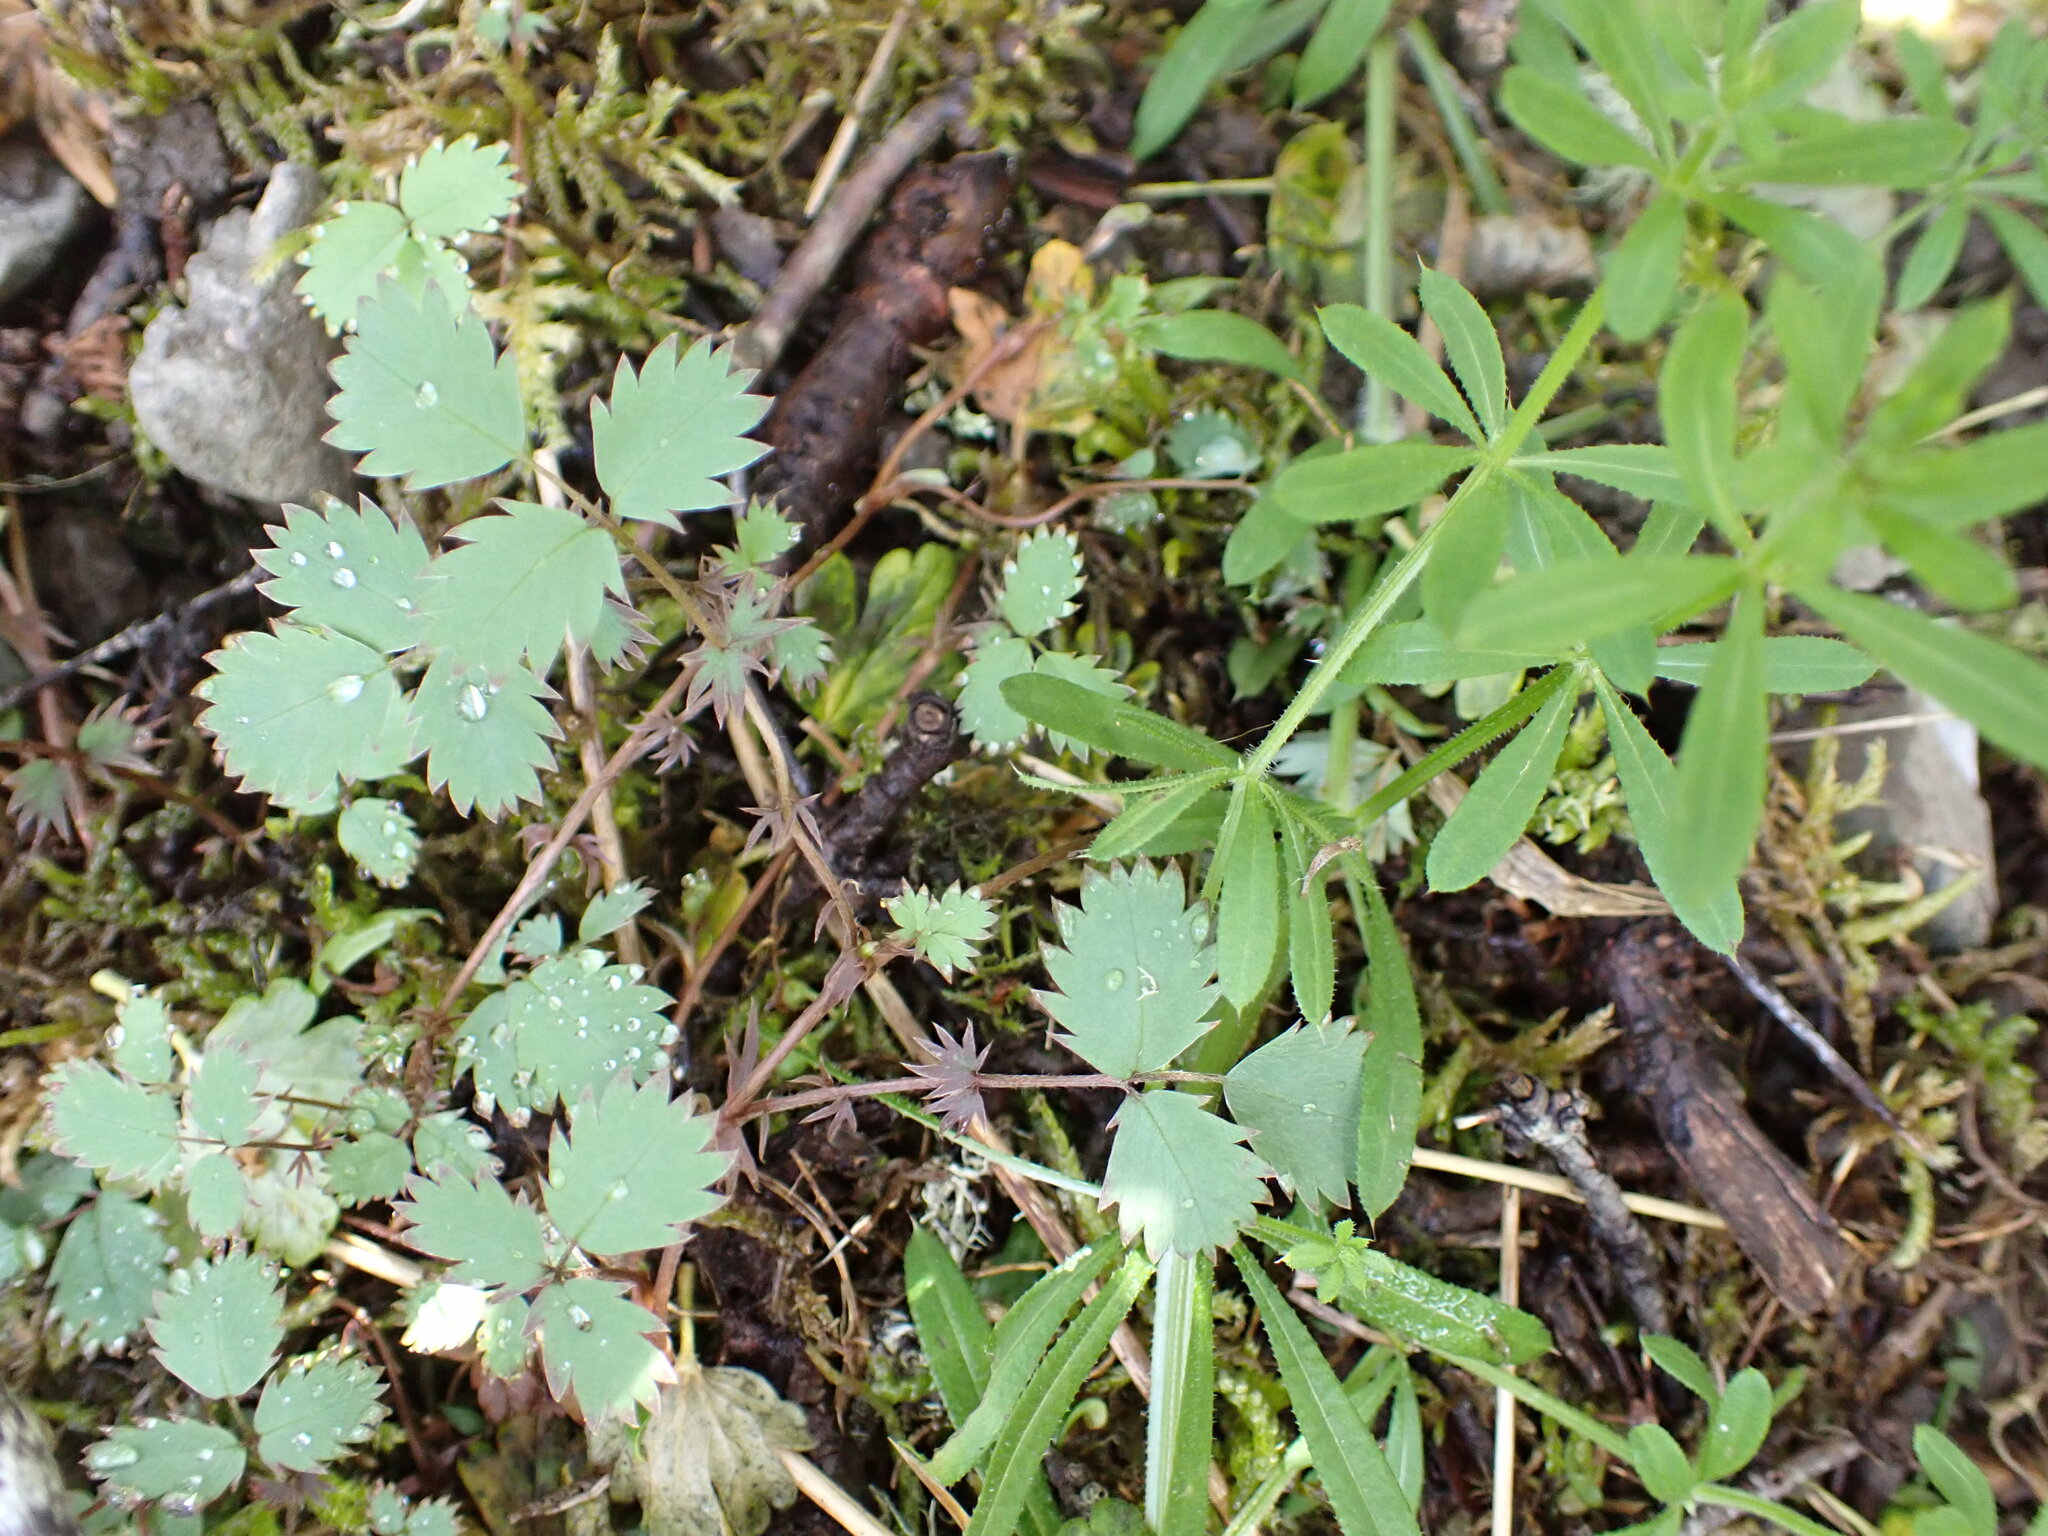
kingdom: Plantae
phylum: Tracheophyta
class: Magnoliopsida
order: Rosales
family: Rosaceae
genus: Acaena
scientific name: Acaena dumicola
